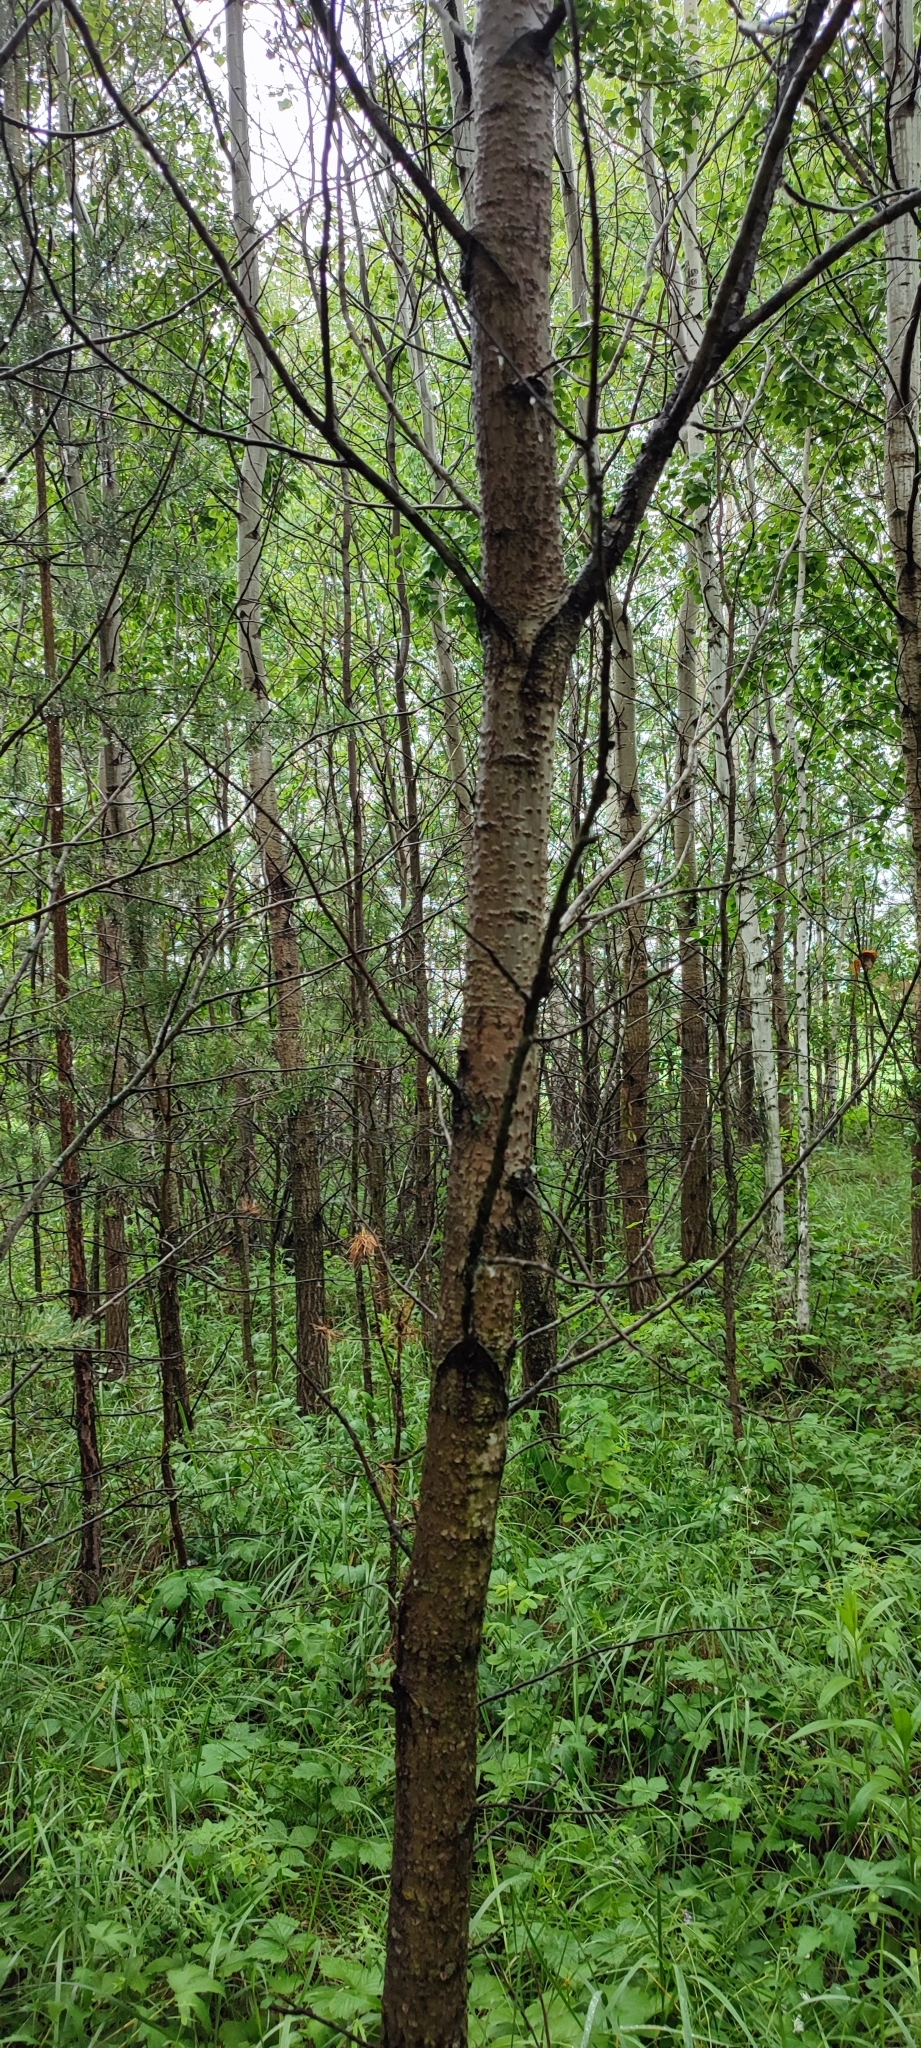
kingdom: Plantae
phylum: Tracheophyta
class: Magnoliopsida
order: Malpighiales
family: Salicaceae
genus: Populus
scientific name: Populus tremula
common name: European aspen
